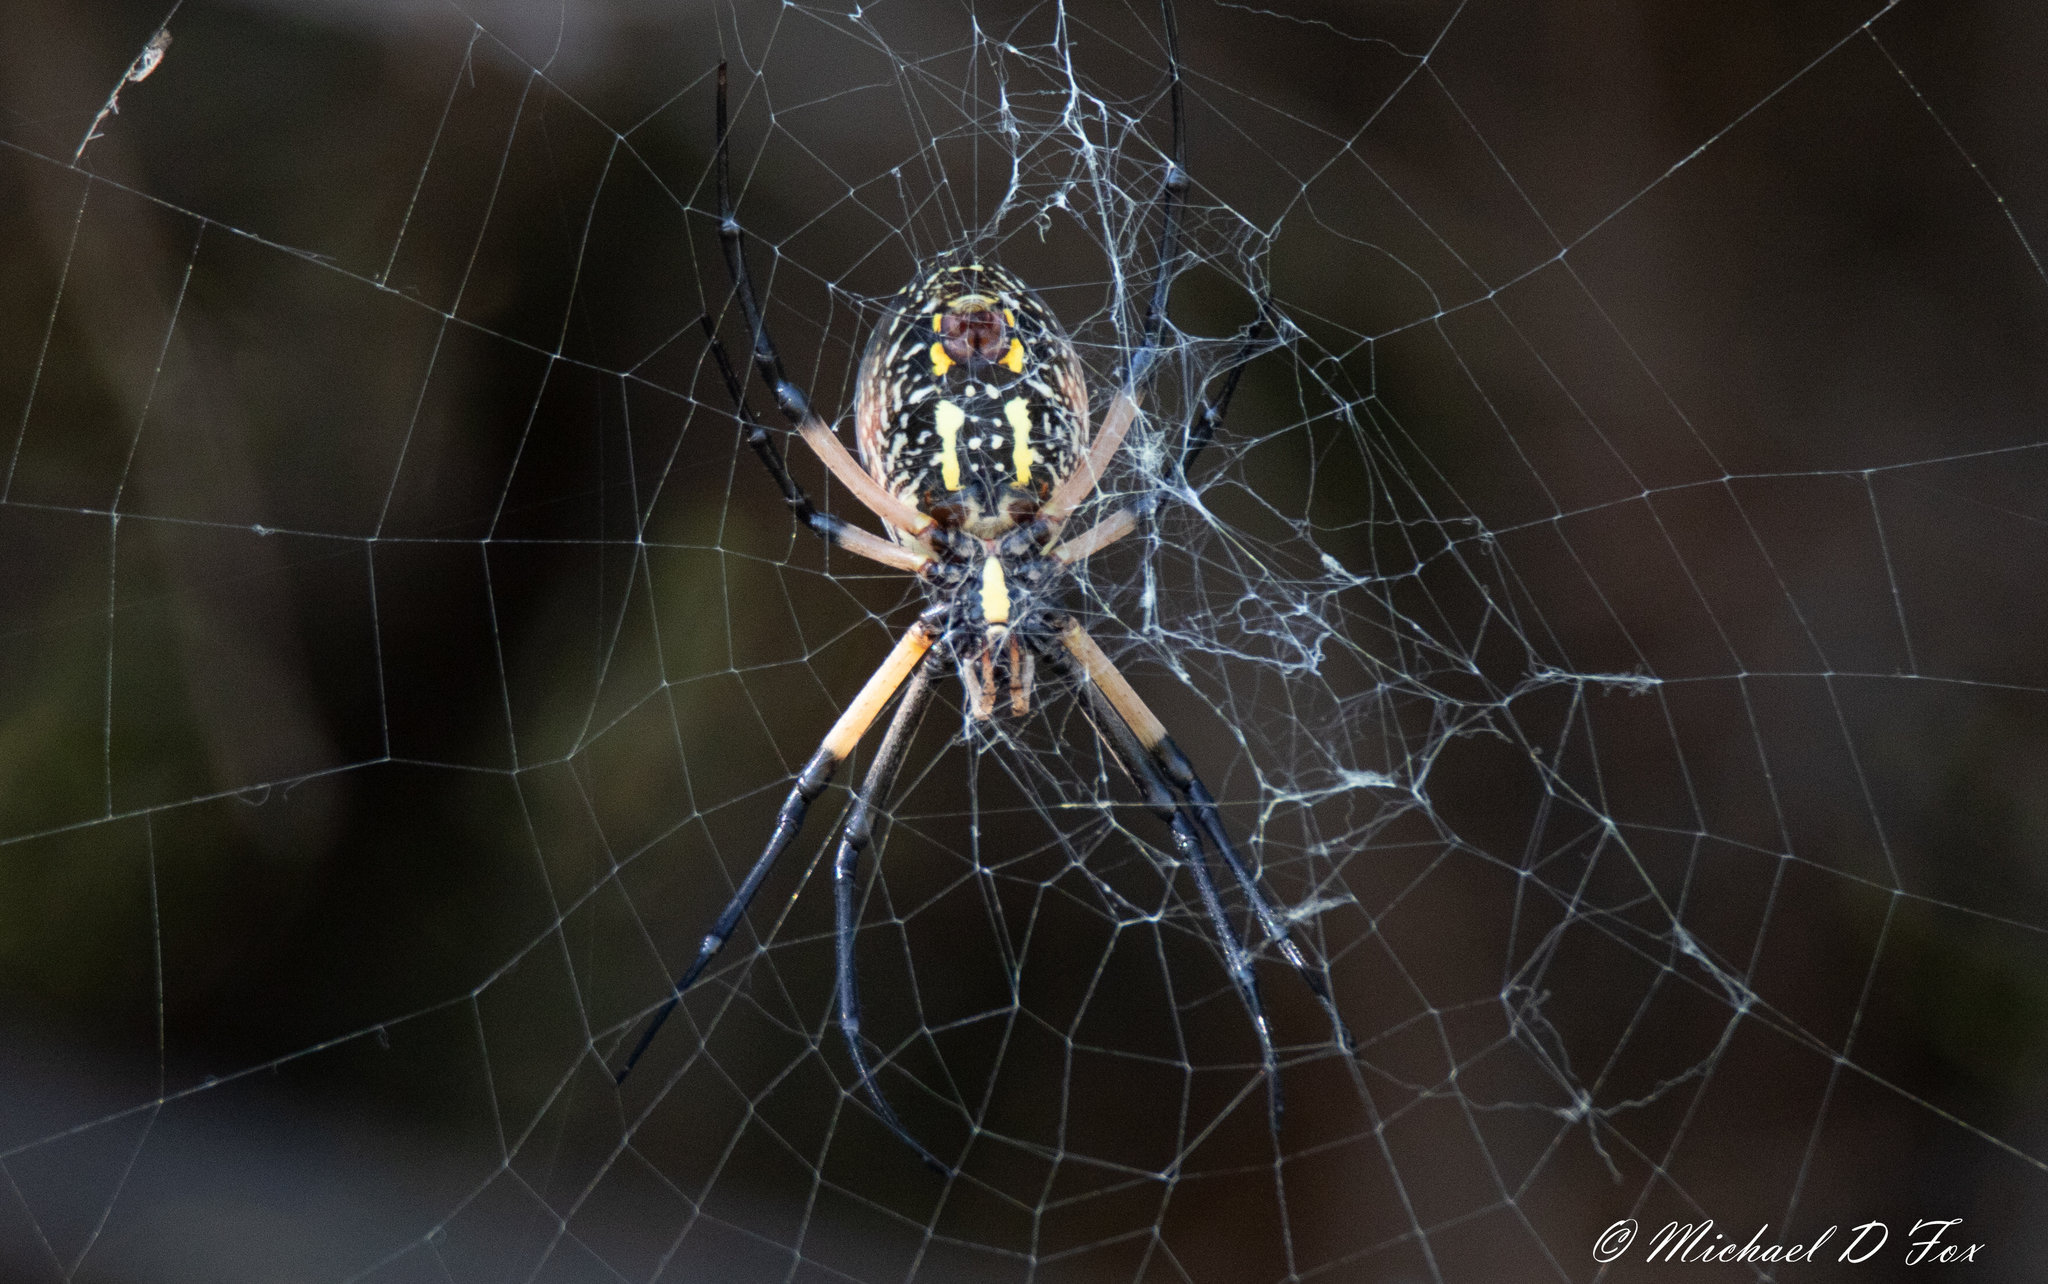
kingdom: Animalia
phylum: Arthropoda
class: Arachnida
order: Araneae
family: Araneidae
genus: Argiope
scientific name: Argiope aurantia
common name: Orb weavers
